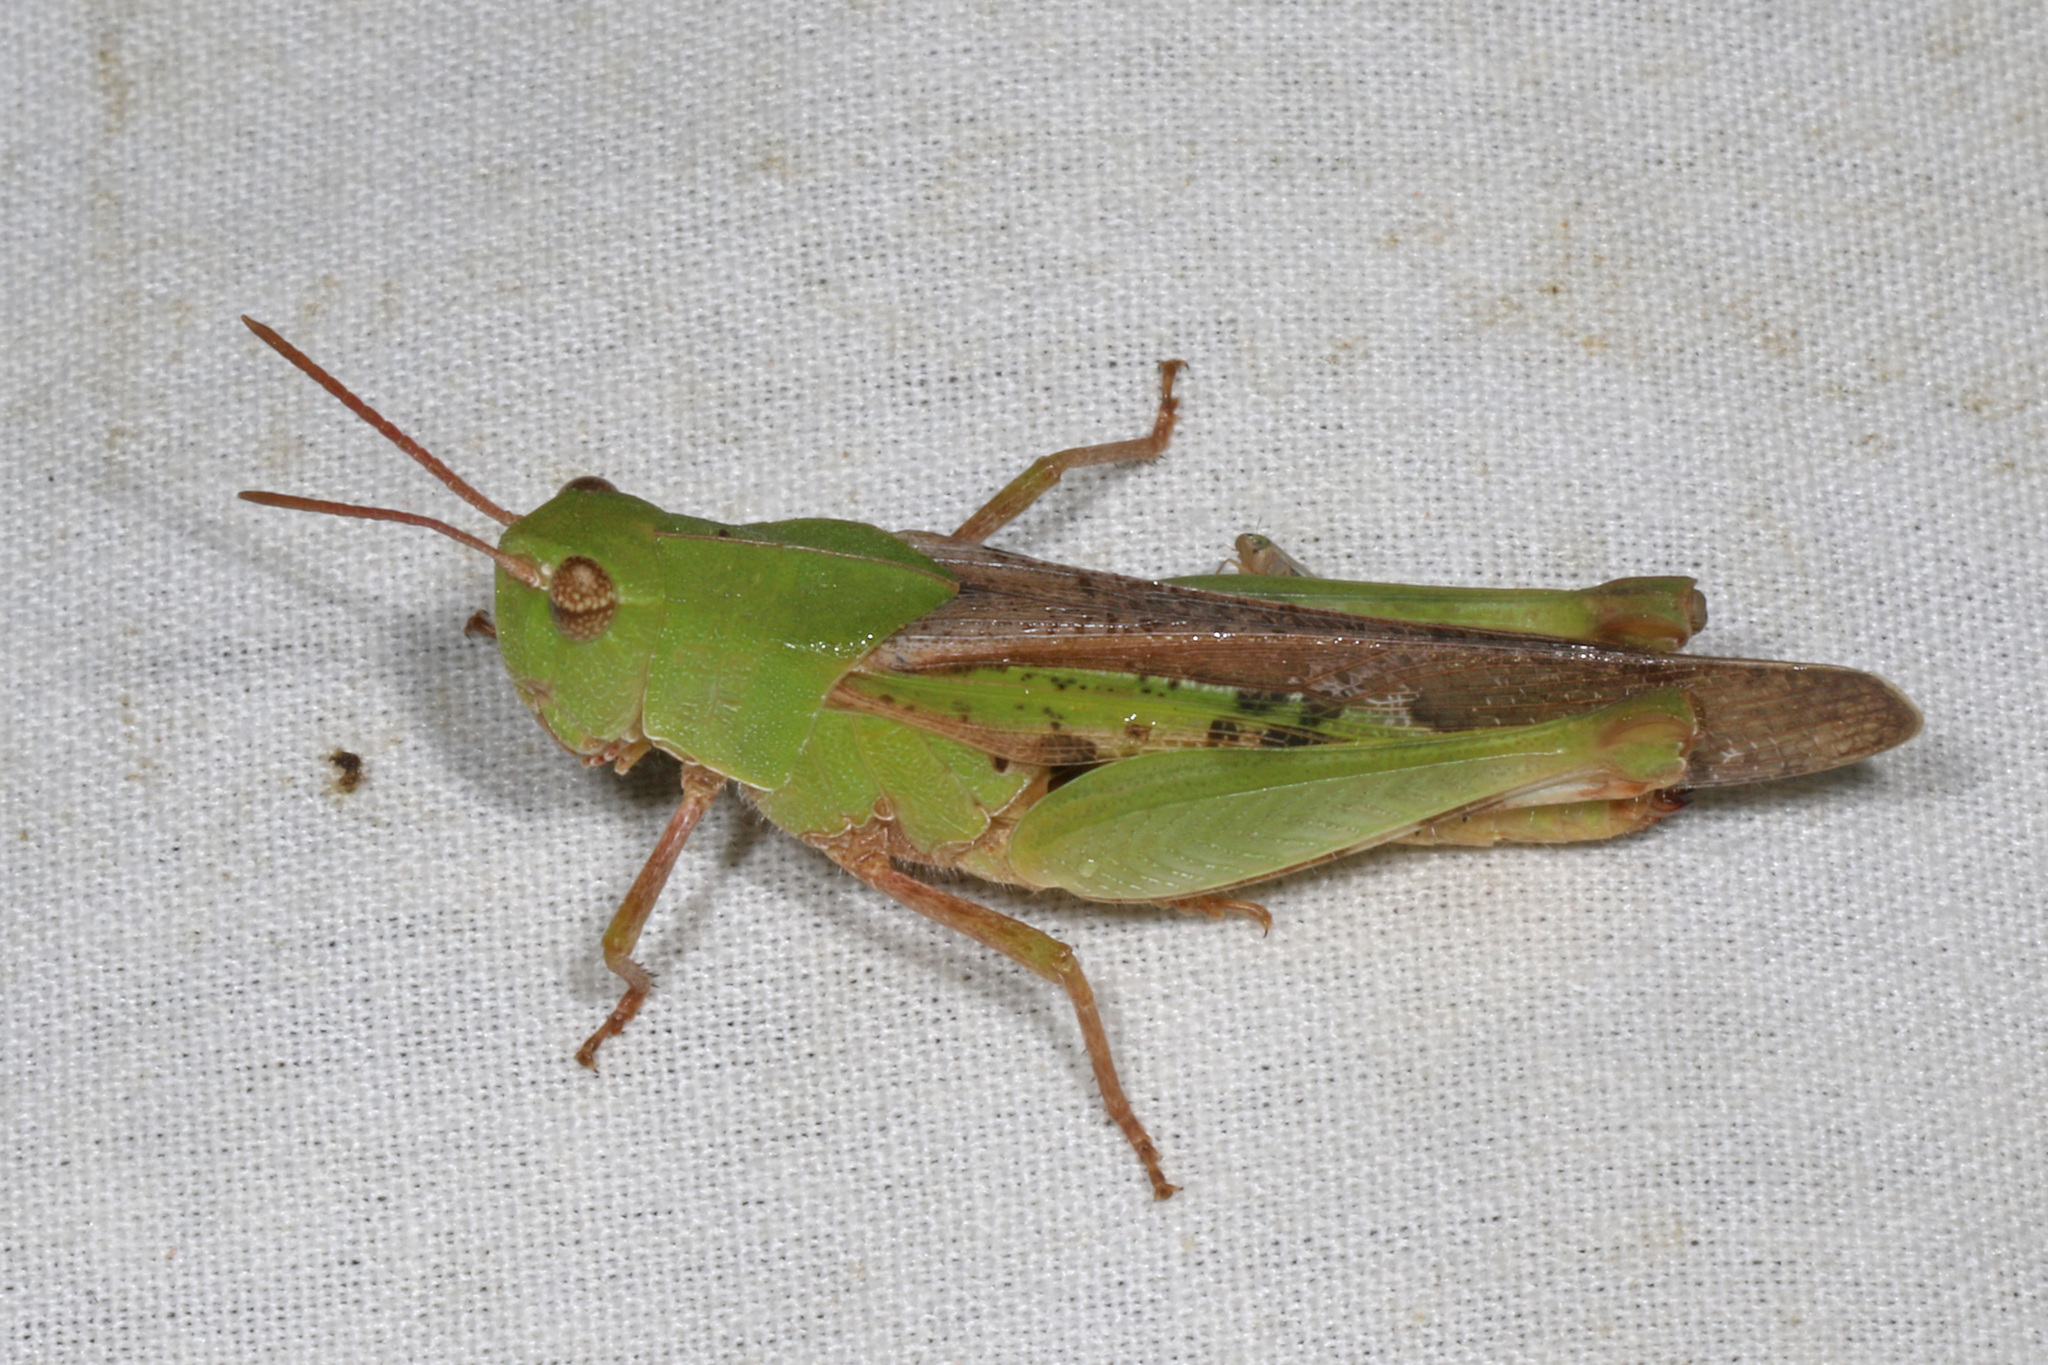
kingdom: Animalia
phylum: Arthropoda
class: Insecta
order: Orthoptera
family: Acrididae
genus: Chortophaga
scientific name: Chortophaga viridifasciata
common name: Green-striped grasshopper
